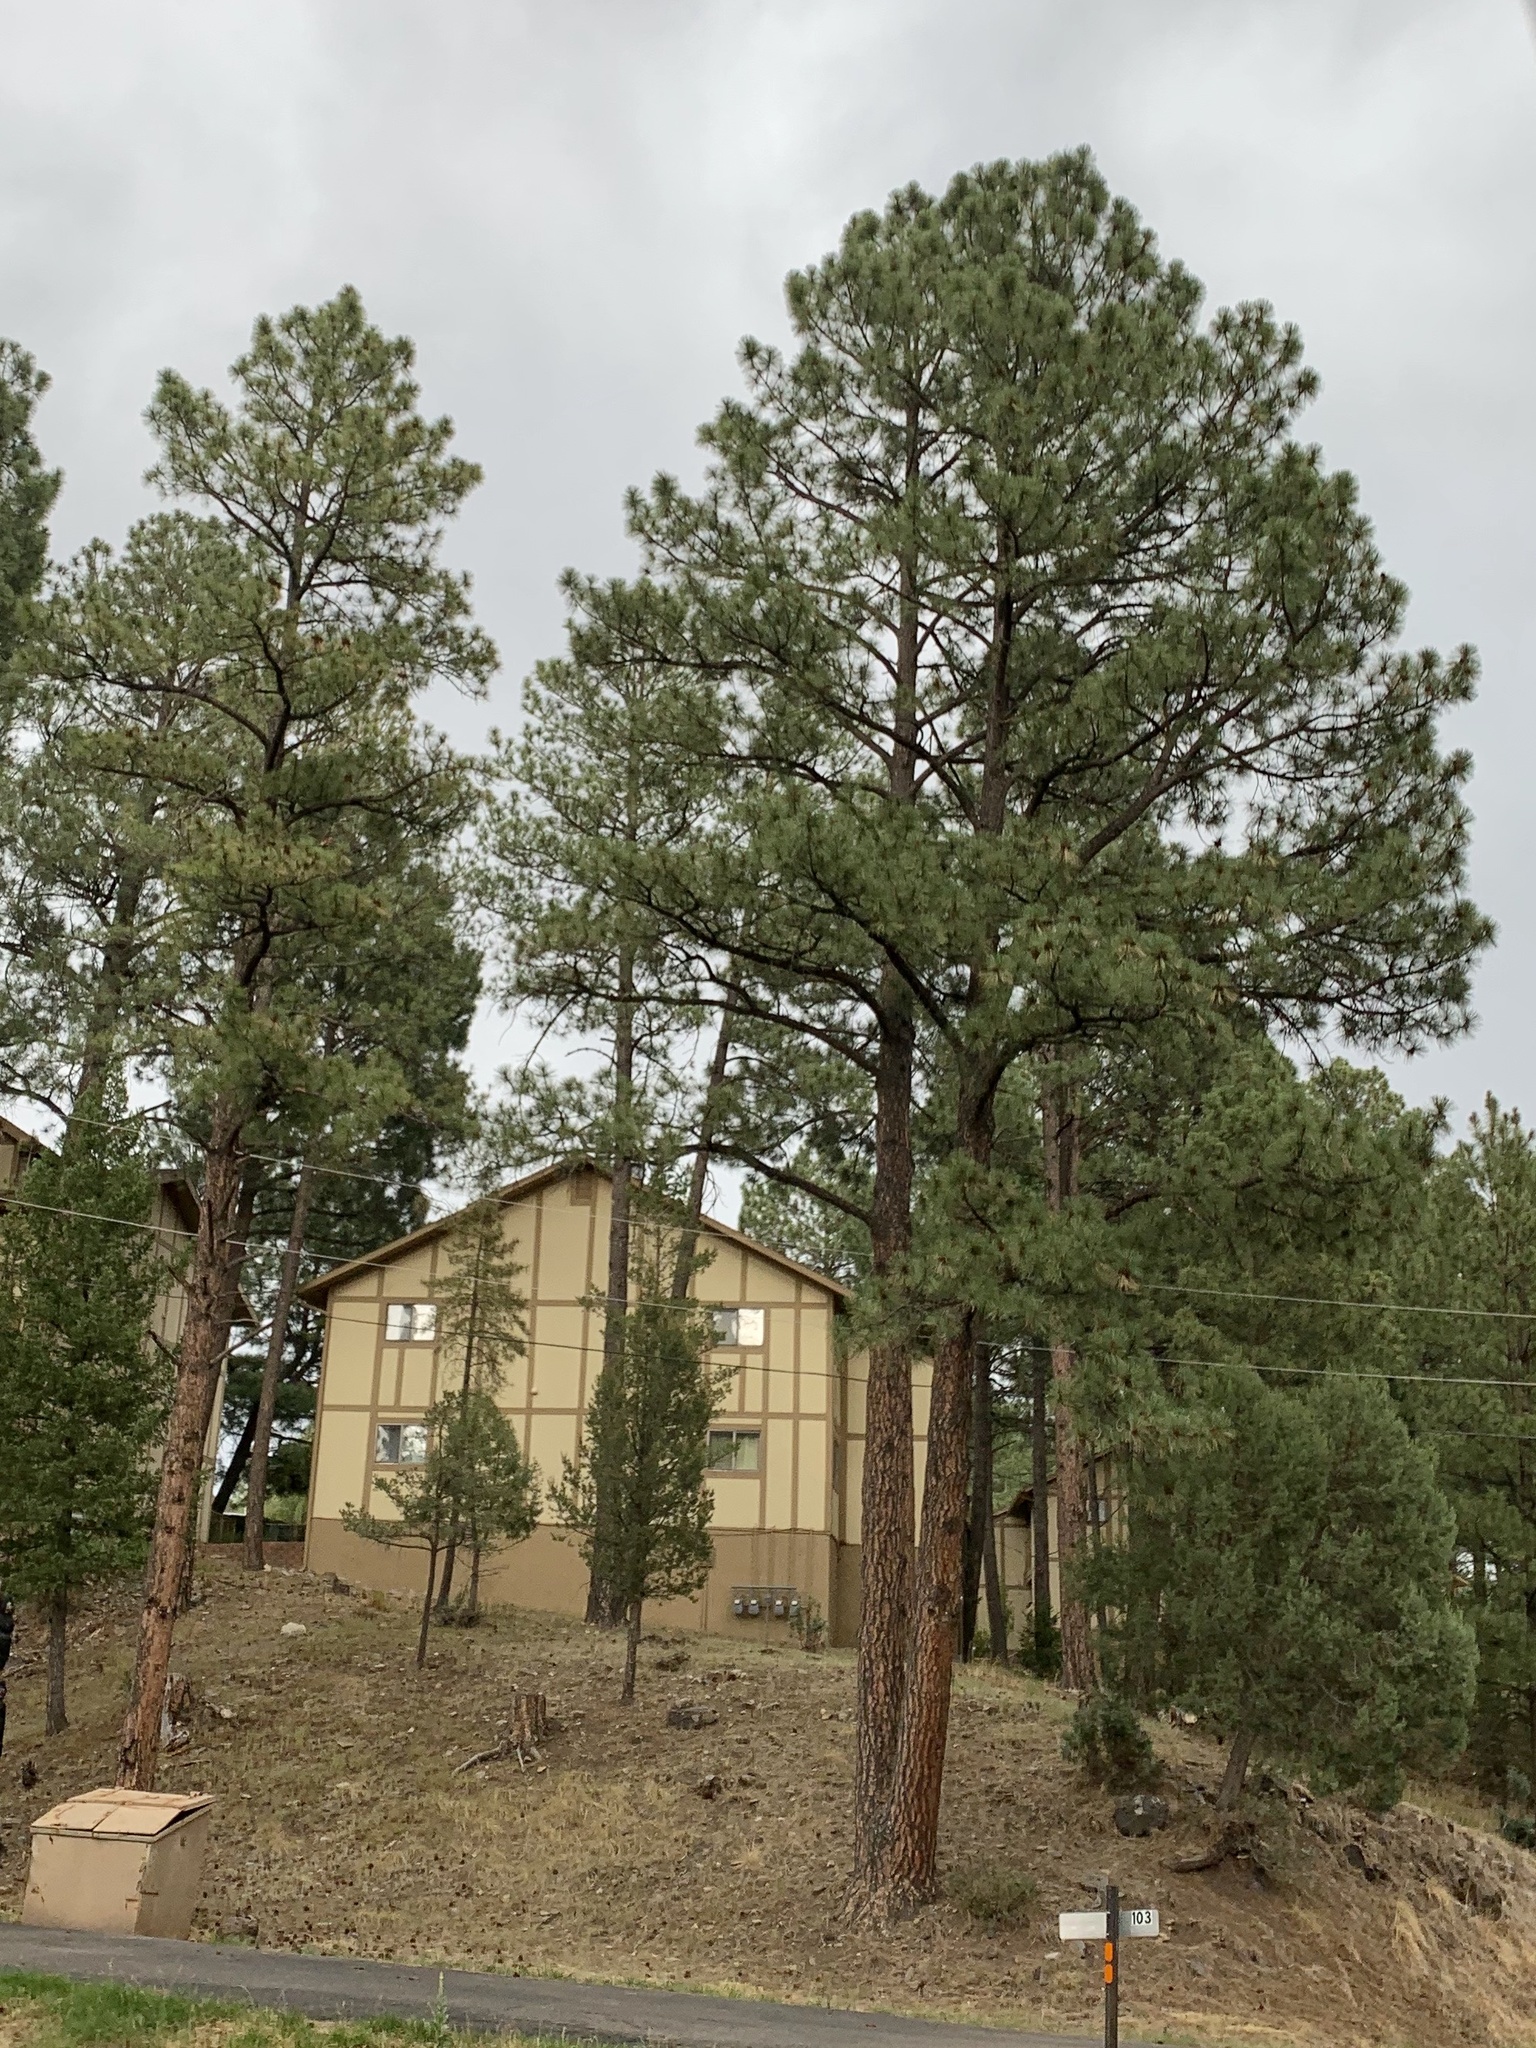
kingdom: Plantae
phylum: Tracheophyta
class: Pinopsida
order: Pinales
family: Pinaceae
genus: Pinus
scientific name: Pinus ponderosa
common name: Western yellow-pine
